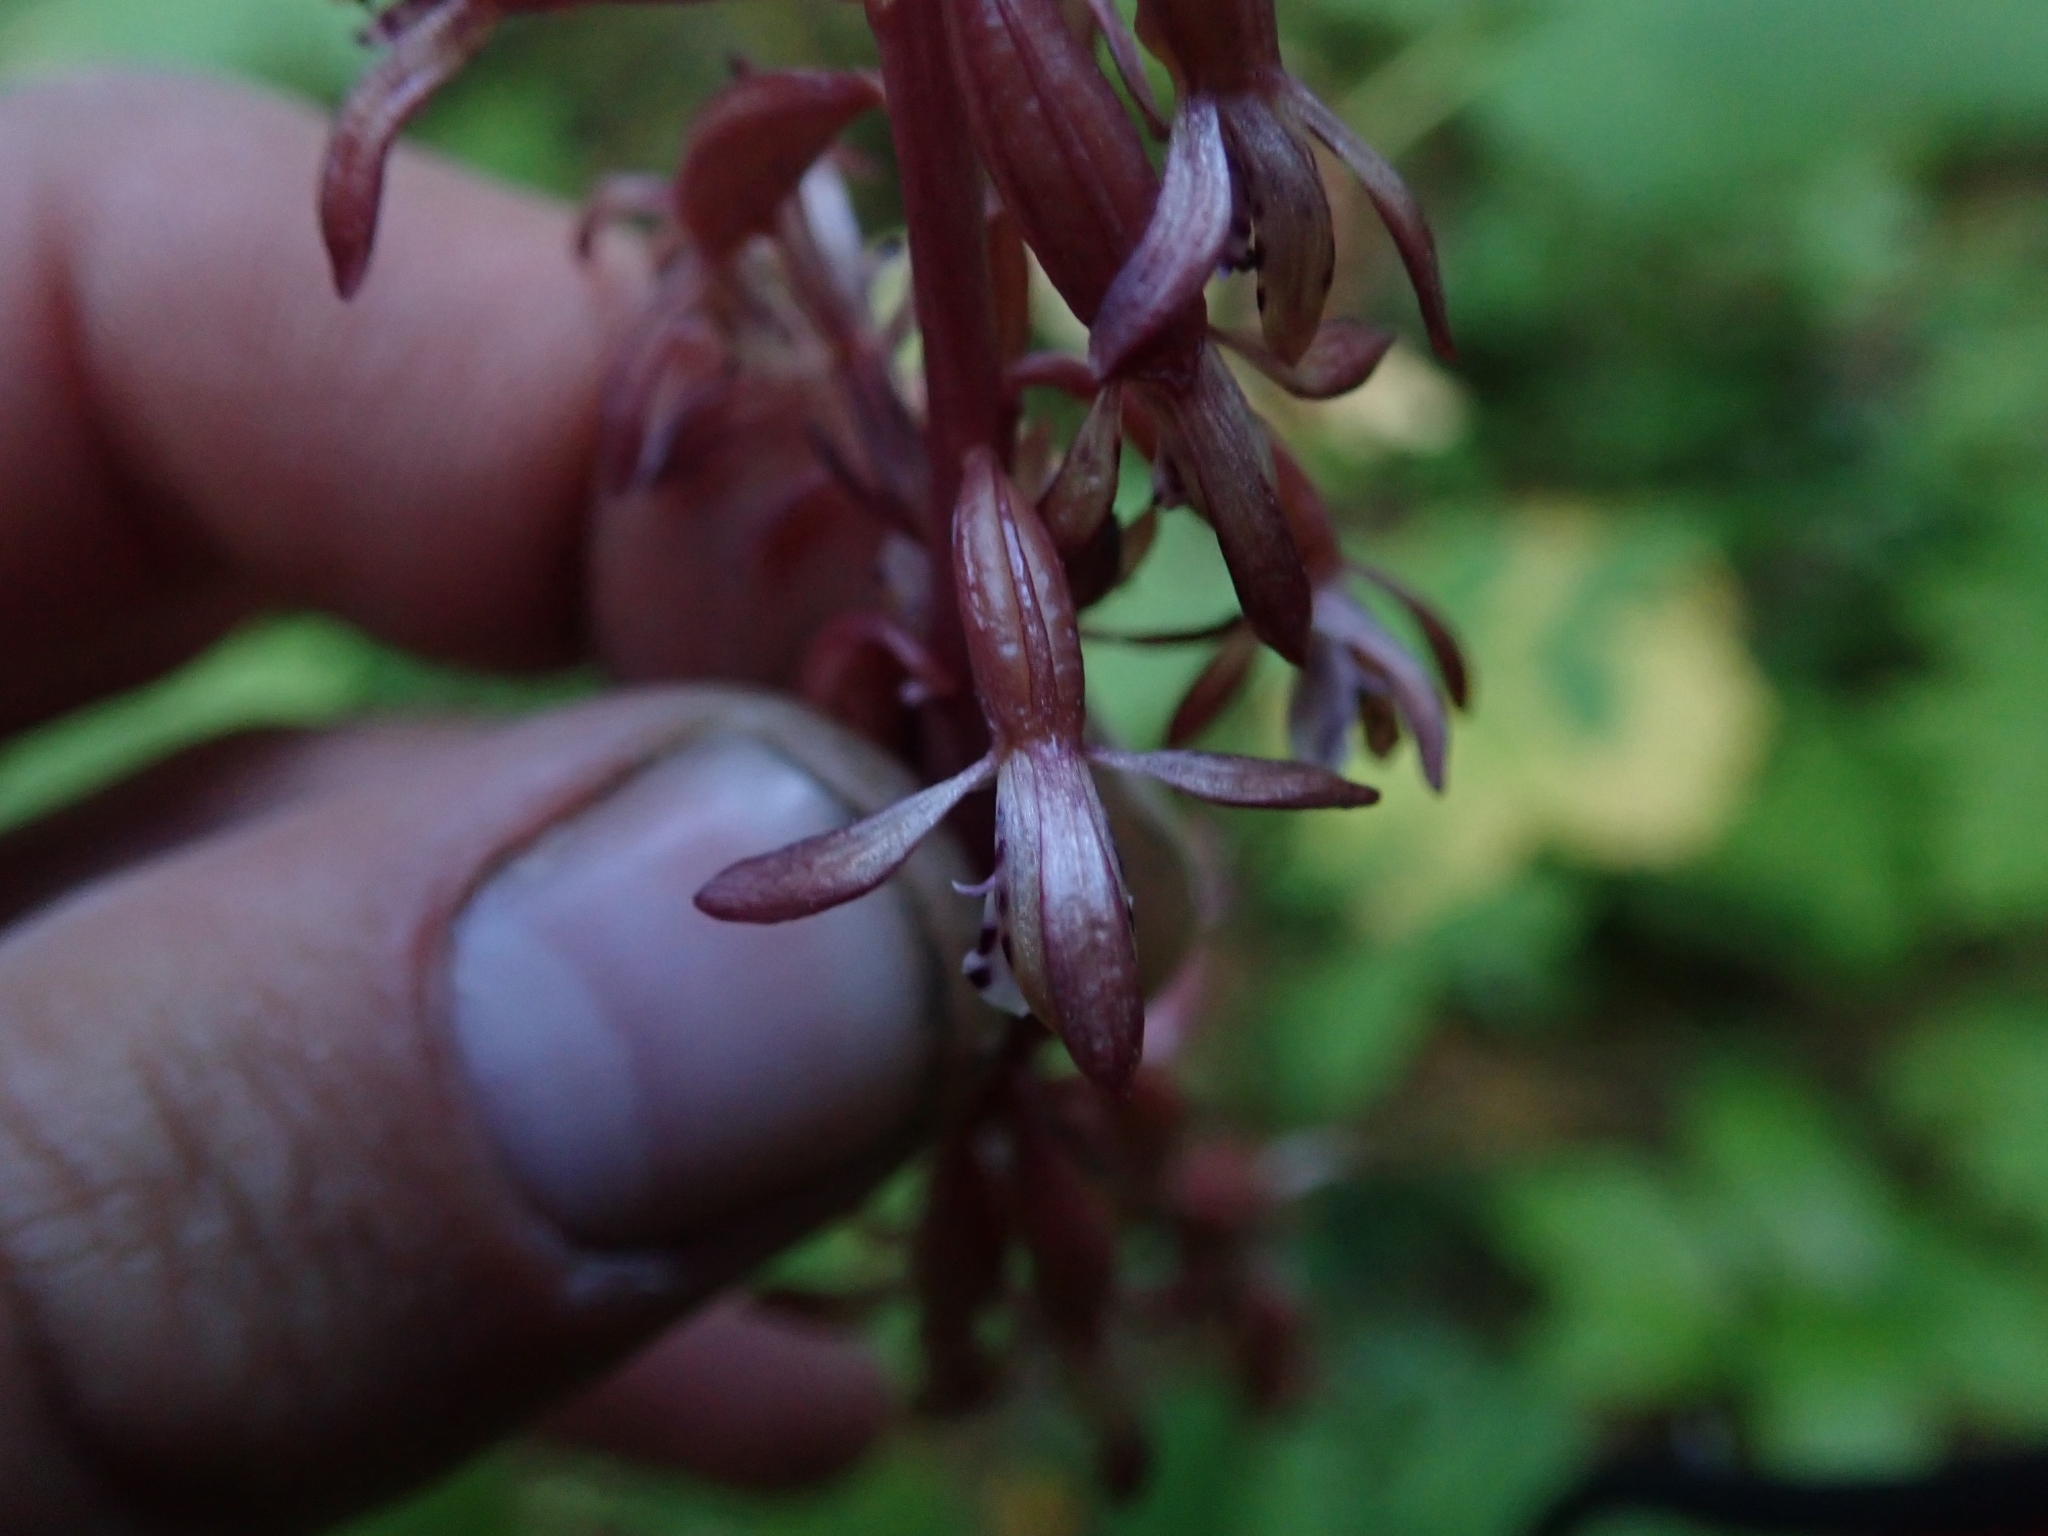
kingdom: Plantae
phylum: Tracheophyta
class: Liliopsida
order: Asparagales
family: Orchidaceae
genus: Corallorhiza
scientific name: Corallorhiza maculata
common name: Spotted coralroot
